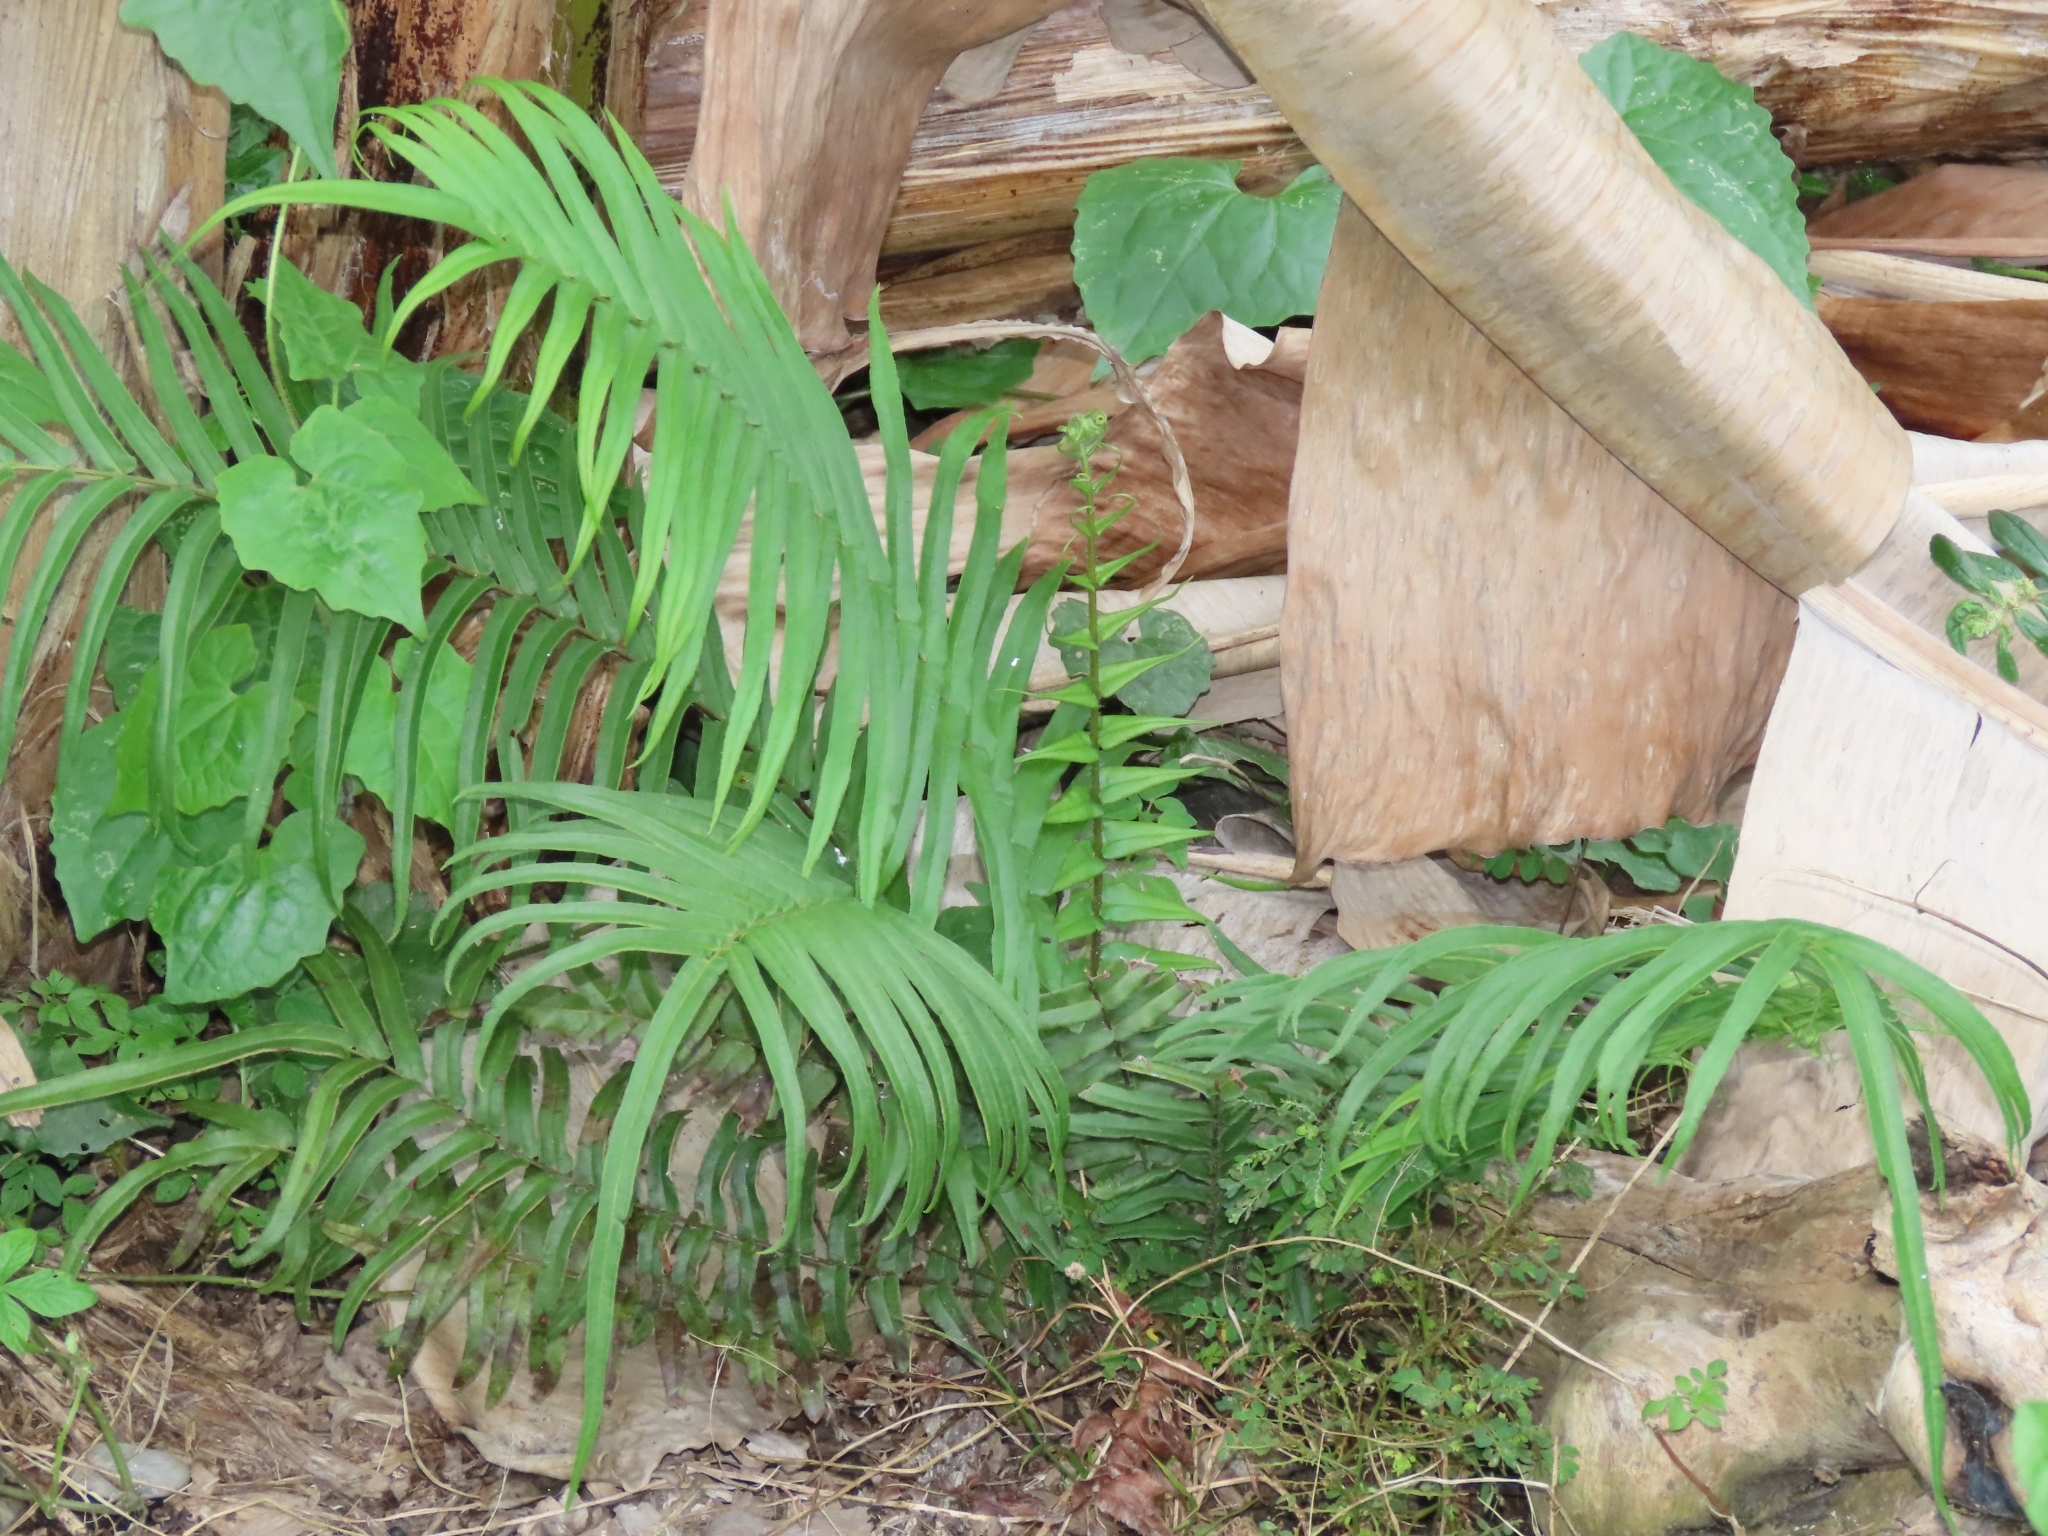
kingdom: Plantae
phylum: Tracheophyta
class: Polypodiopsida
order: Polypodiales
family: Pteridaceae
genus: Pteris
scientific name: Pteris vittata
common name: Ladder brake
